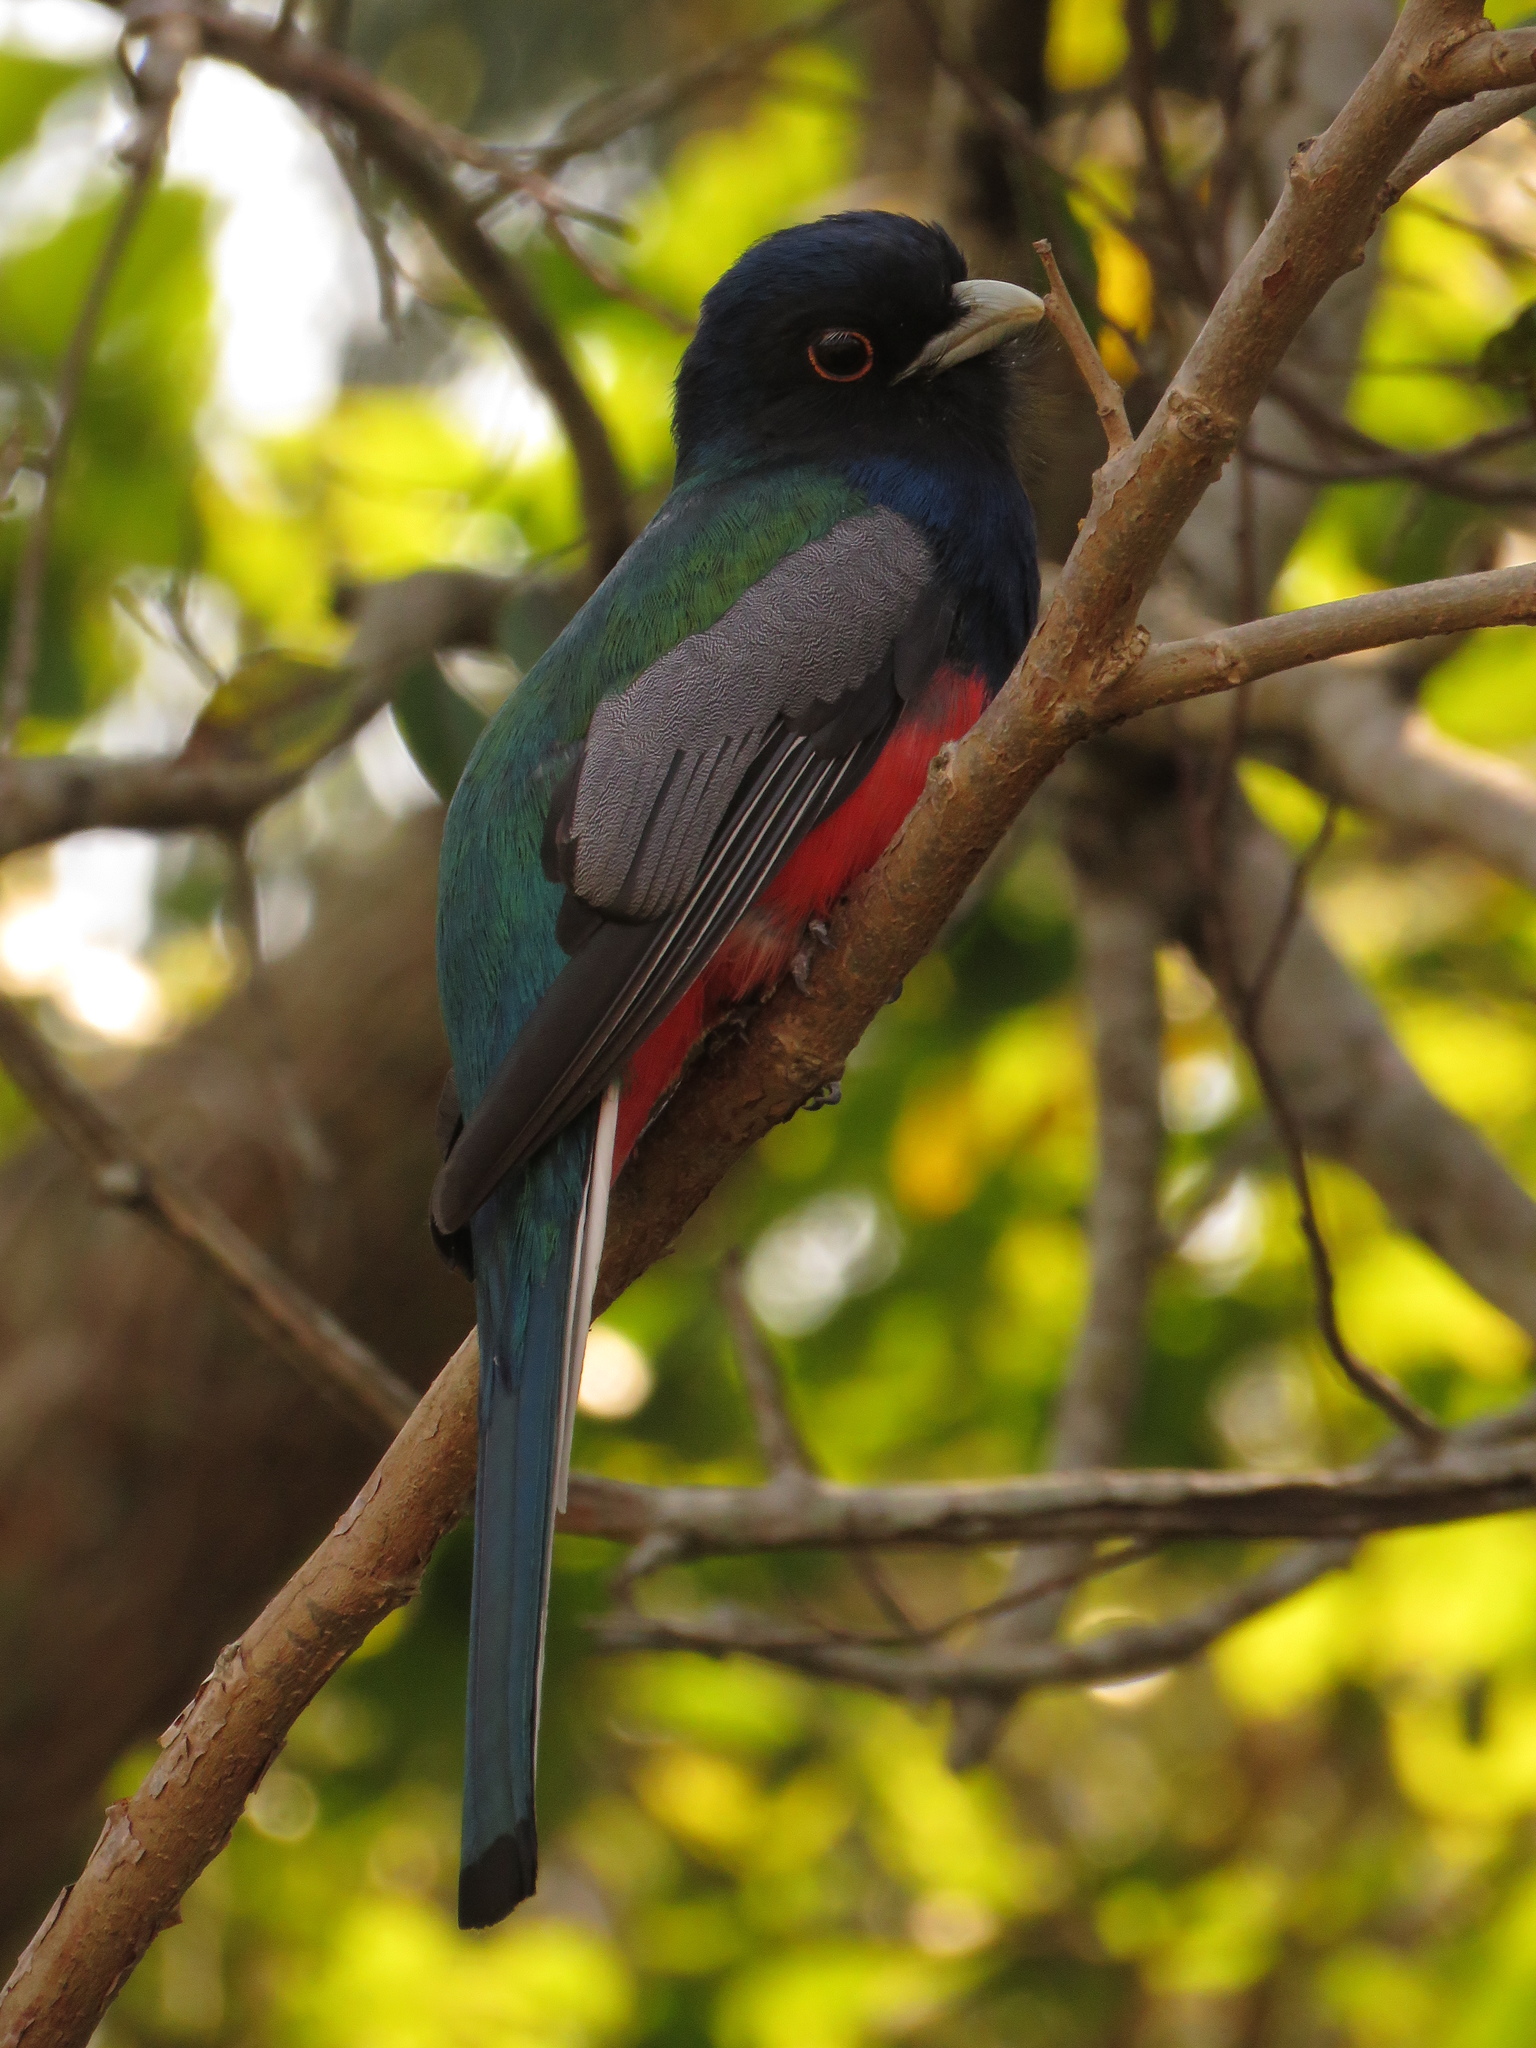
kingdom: Animalia
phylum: Chordata
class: Aves
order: Trogoniformes
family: Trogonidae
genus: Trogon
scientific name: Trogon surrucura
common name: Surucua trogon
